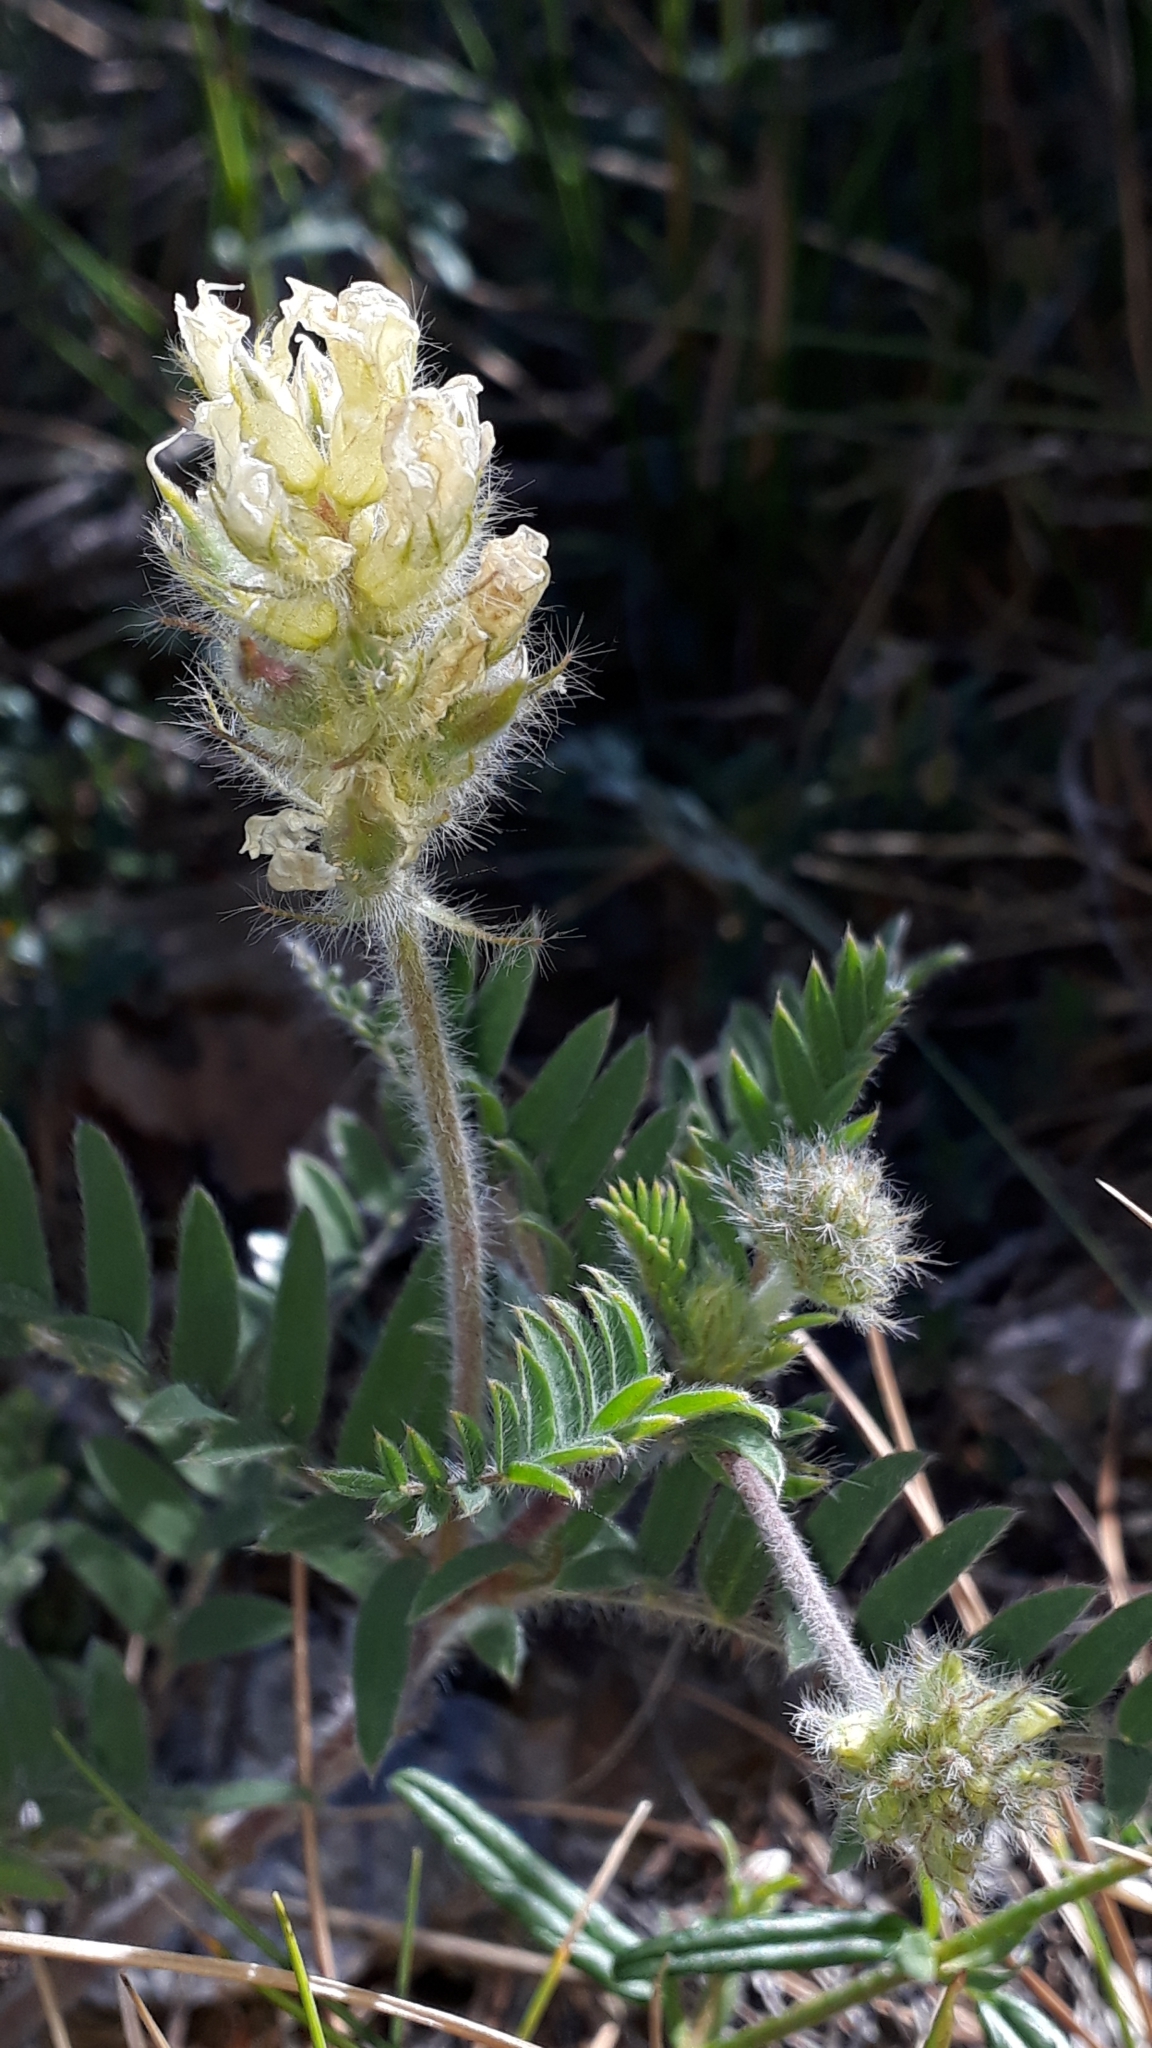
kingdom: Plantae
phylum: Tracheophyta
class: Magnoliopsida
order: Fabales
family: Fabaceae
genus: Oxytropis
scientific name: Oxytropis pilosa
